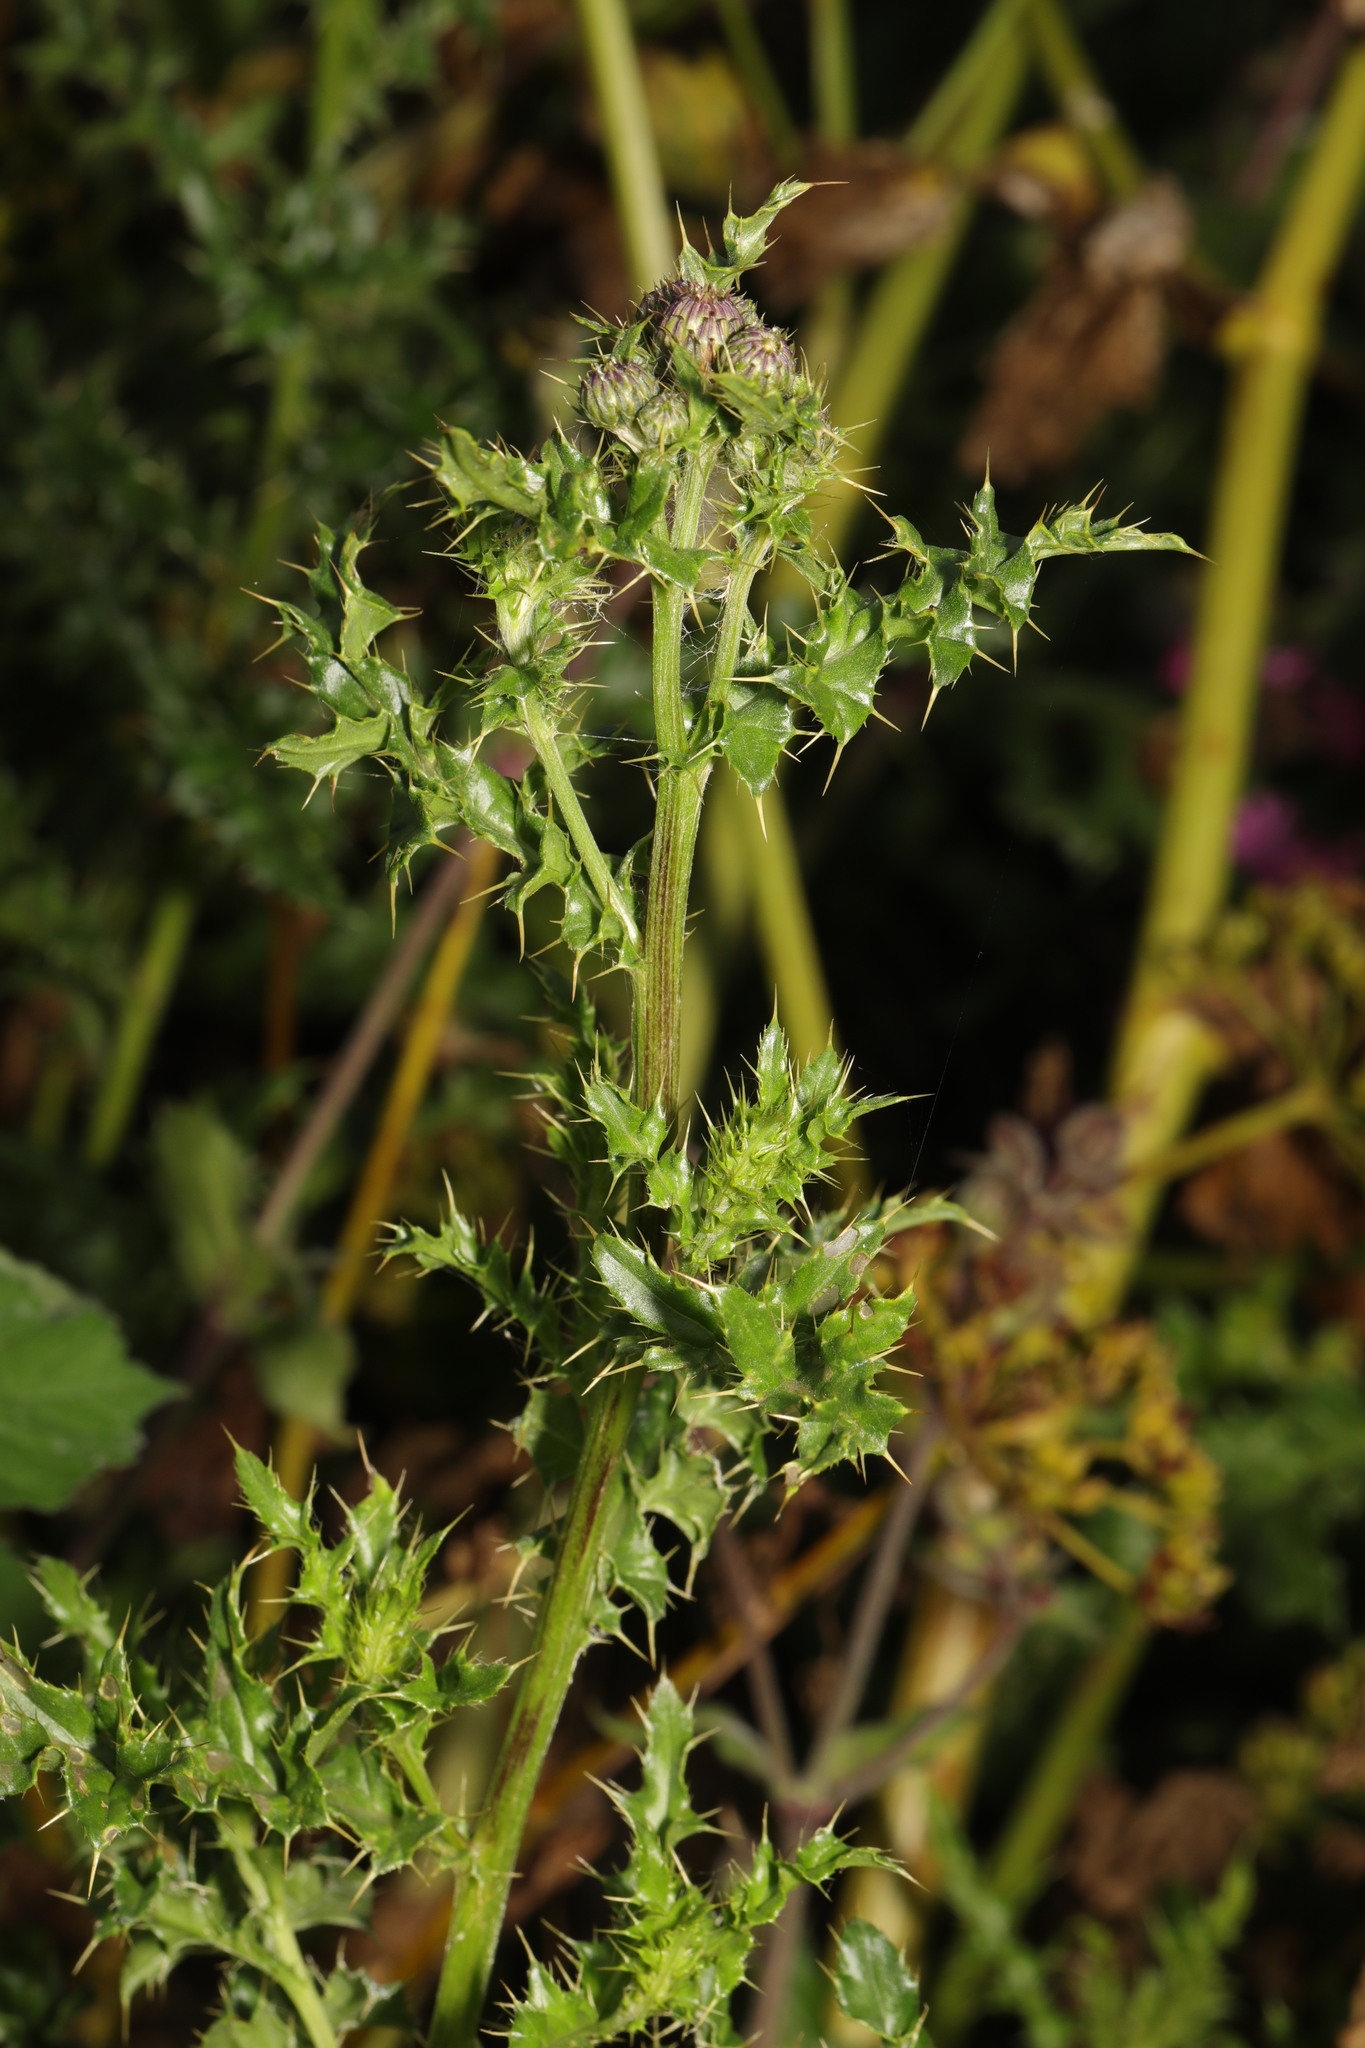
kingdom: Plantae
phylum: Tracheophyta
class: Magnoliopsida
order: Asterales
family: Asteraceae
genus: Cirsium
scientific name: Cirsium arvense
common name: Creeping thistle
